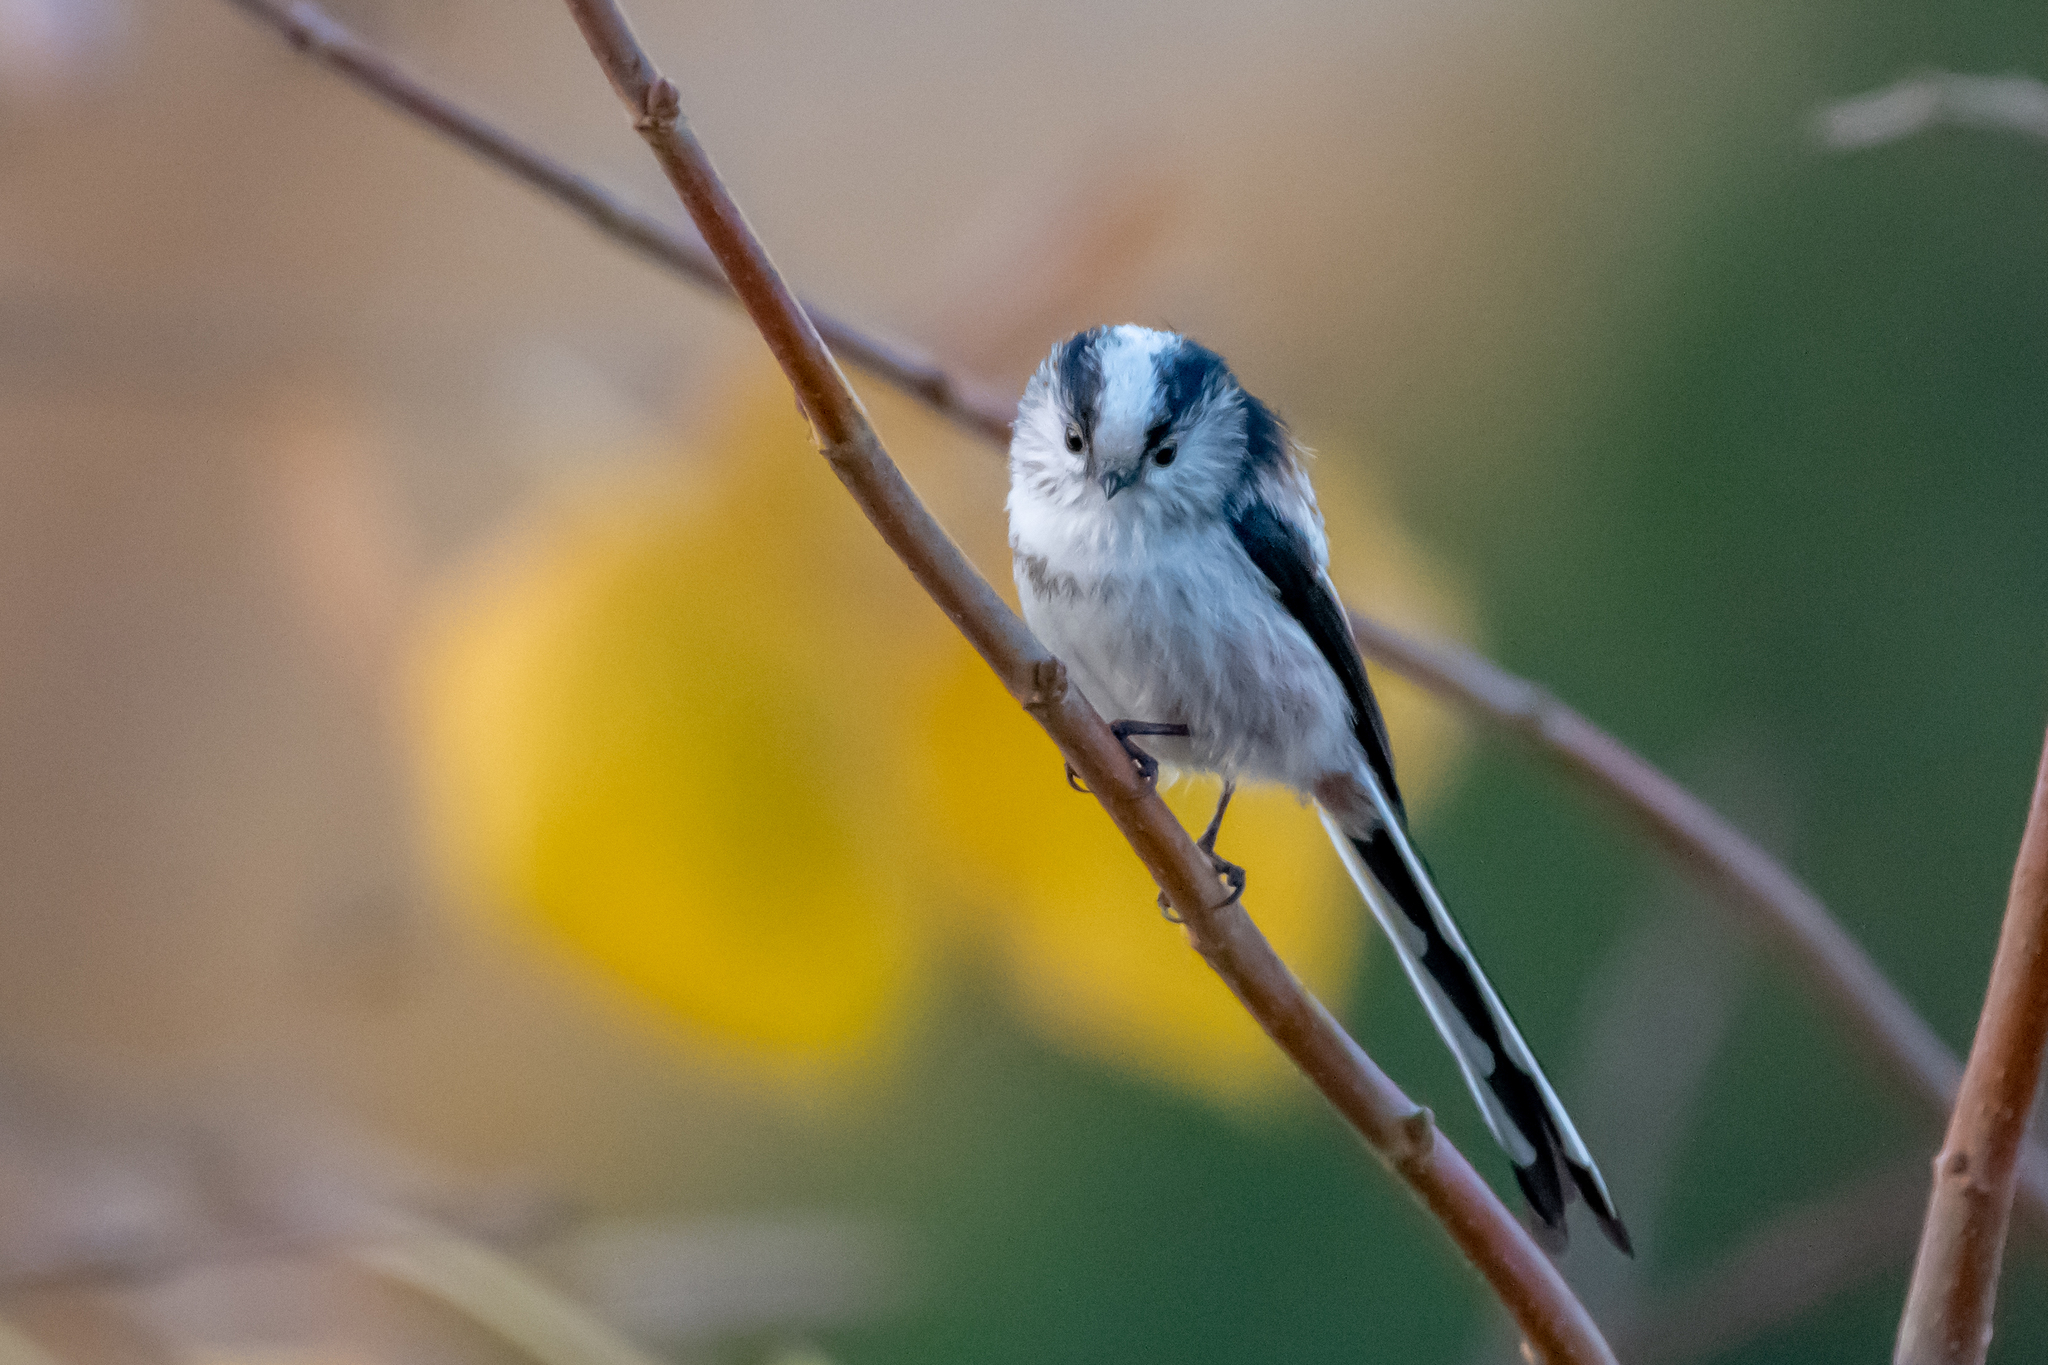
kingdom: Animalia
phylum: Chordata
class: Aves
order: Passeriformes
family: Aegithalidae
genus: Aegithalos
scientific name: Aegithalos caudatus
